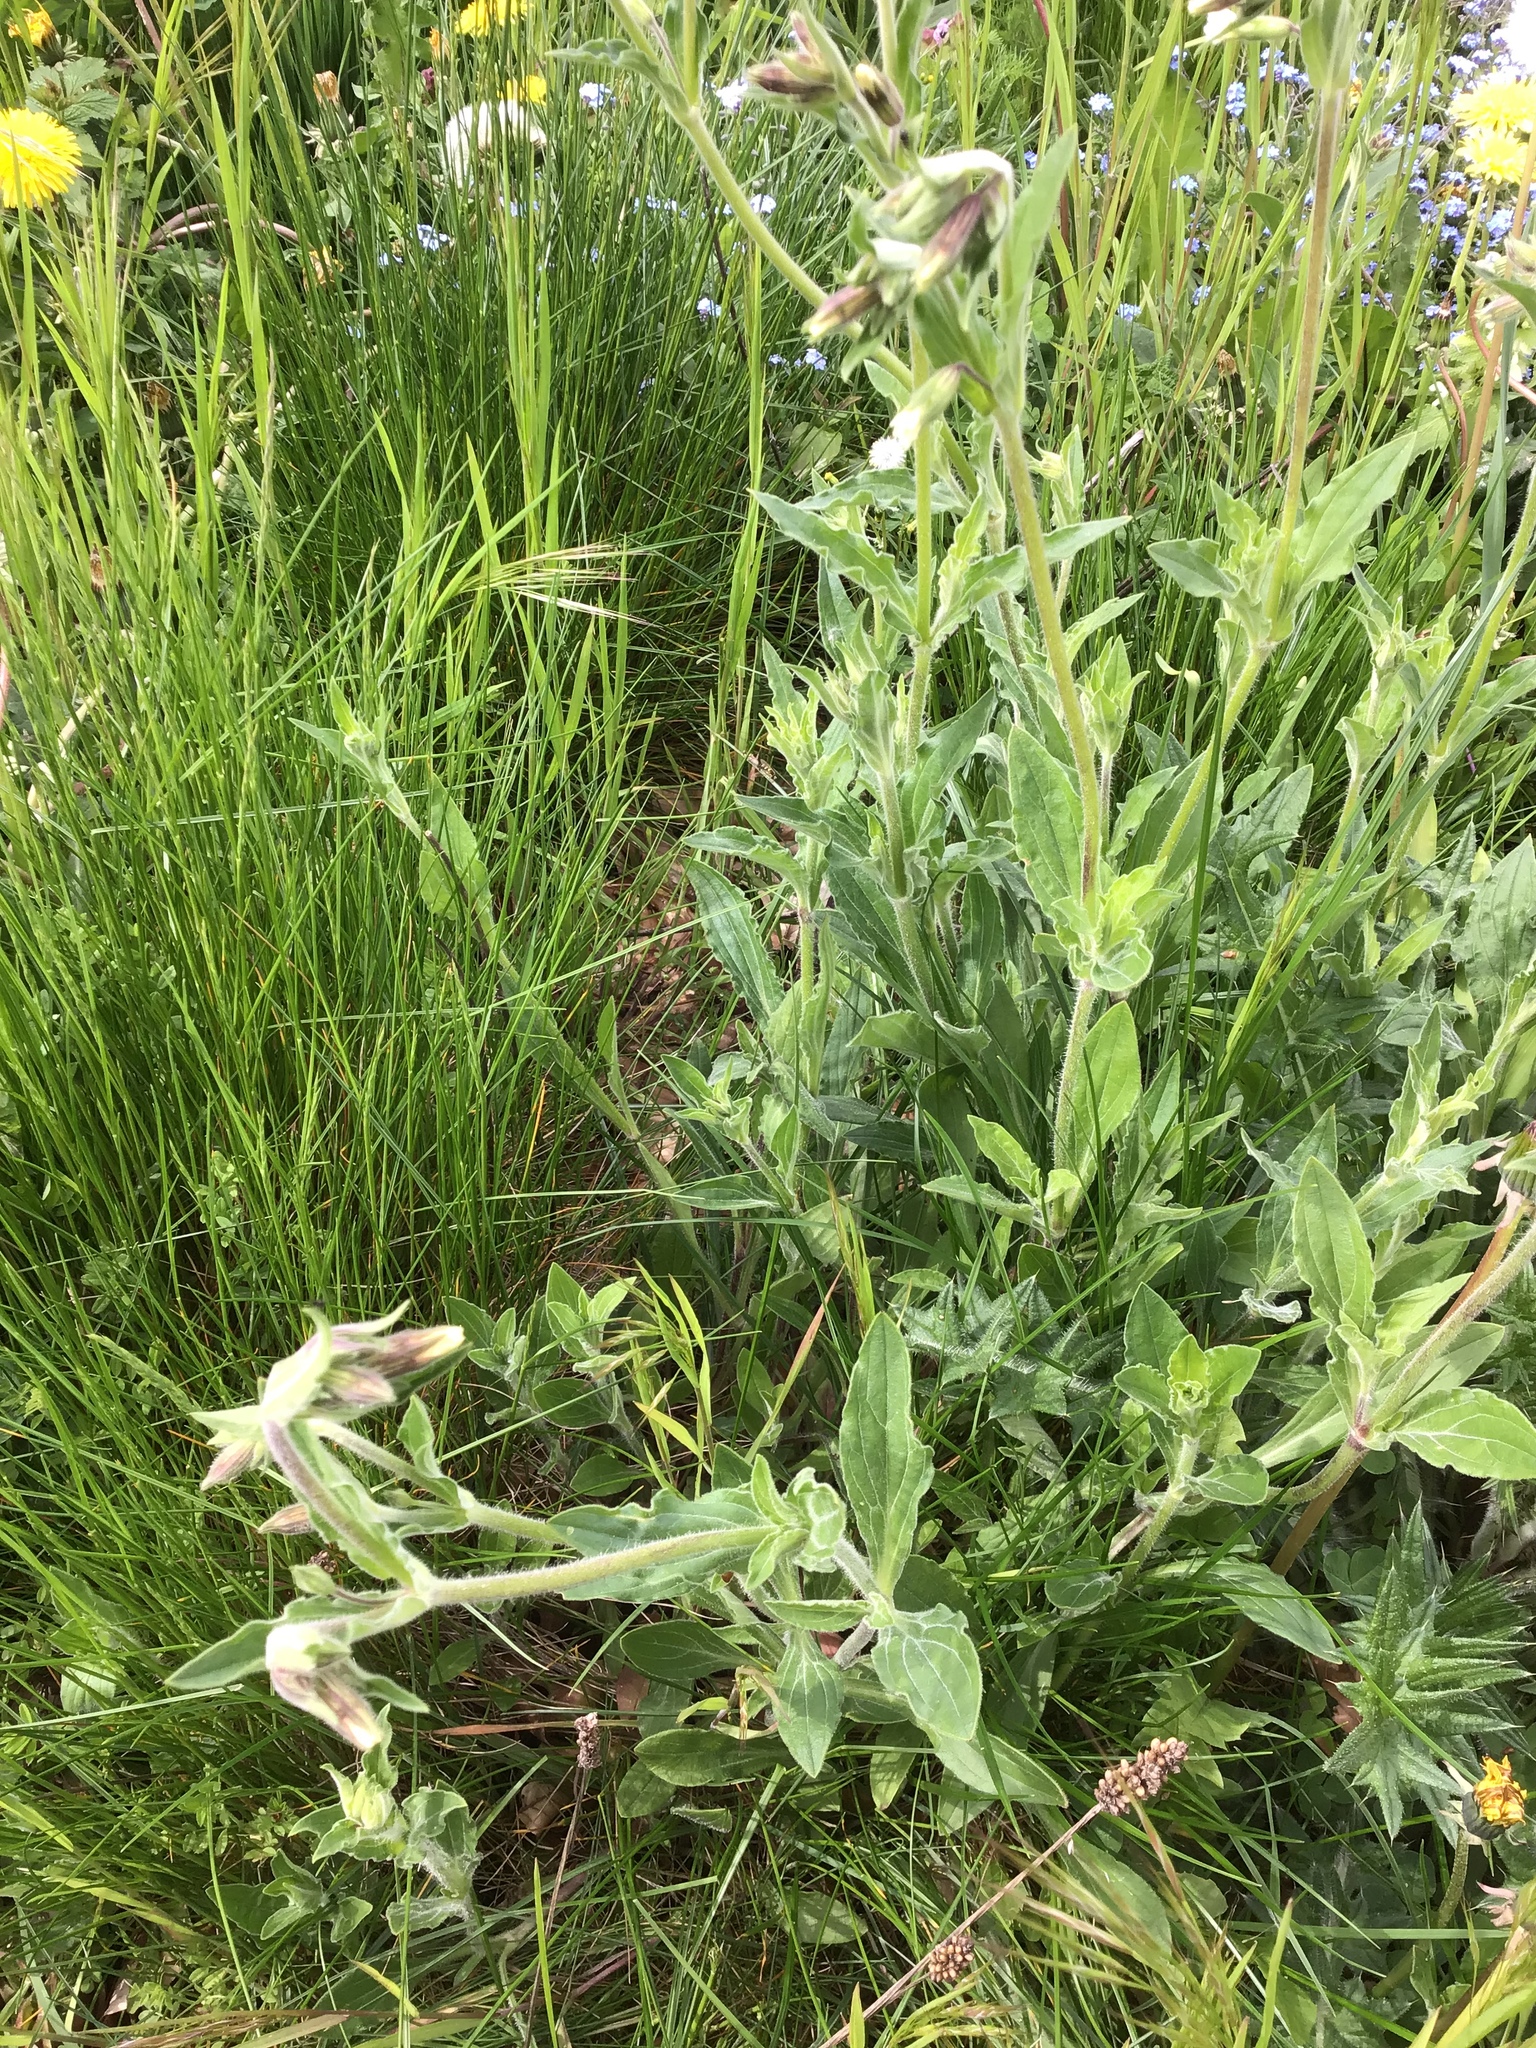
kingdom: Plantae
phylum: Tracheophyta
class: Magnoliopsida
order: Caryophyllales
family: Caryophyllaceae
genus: Silene
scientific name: Silene latifolia
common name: White campion
